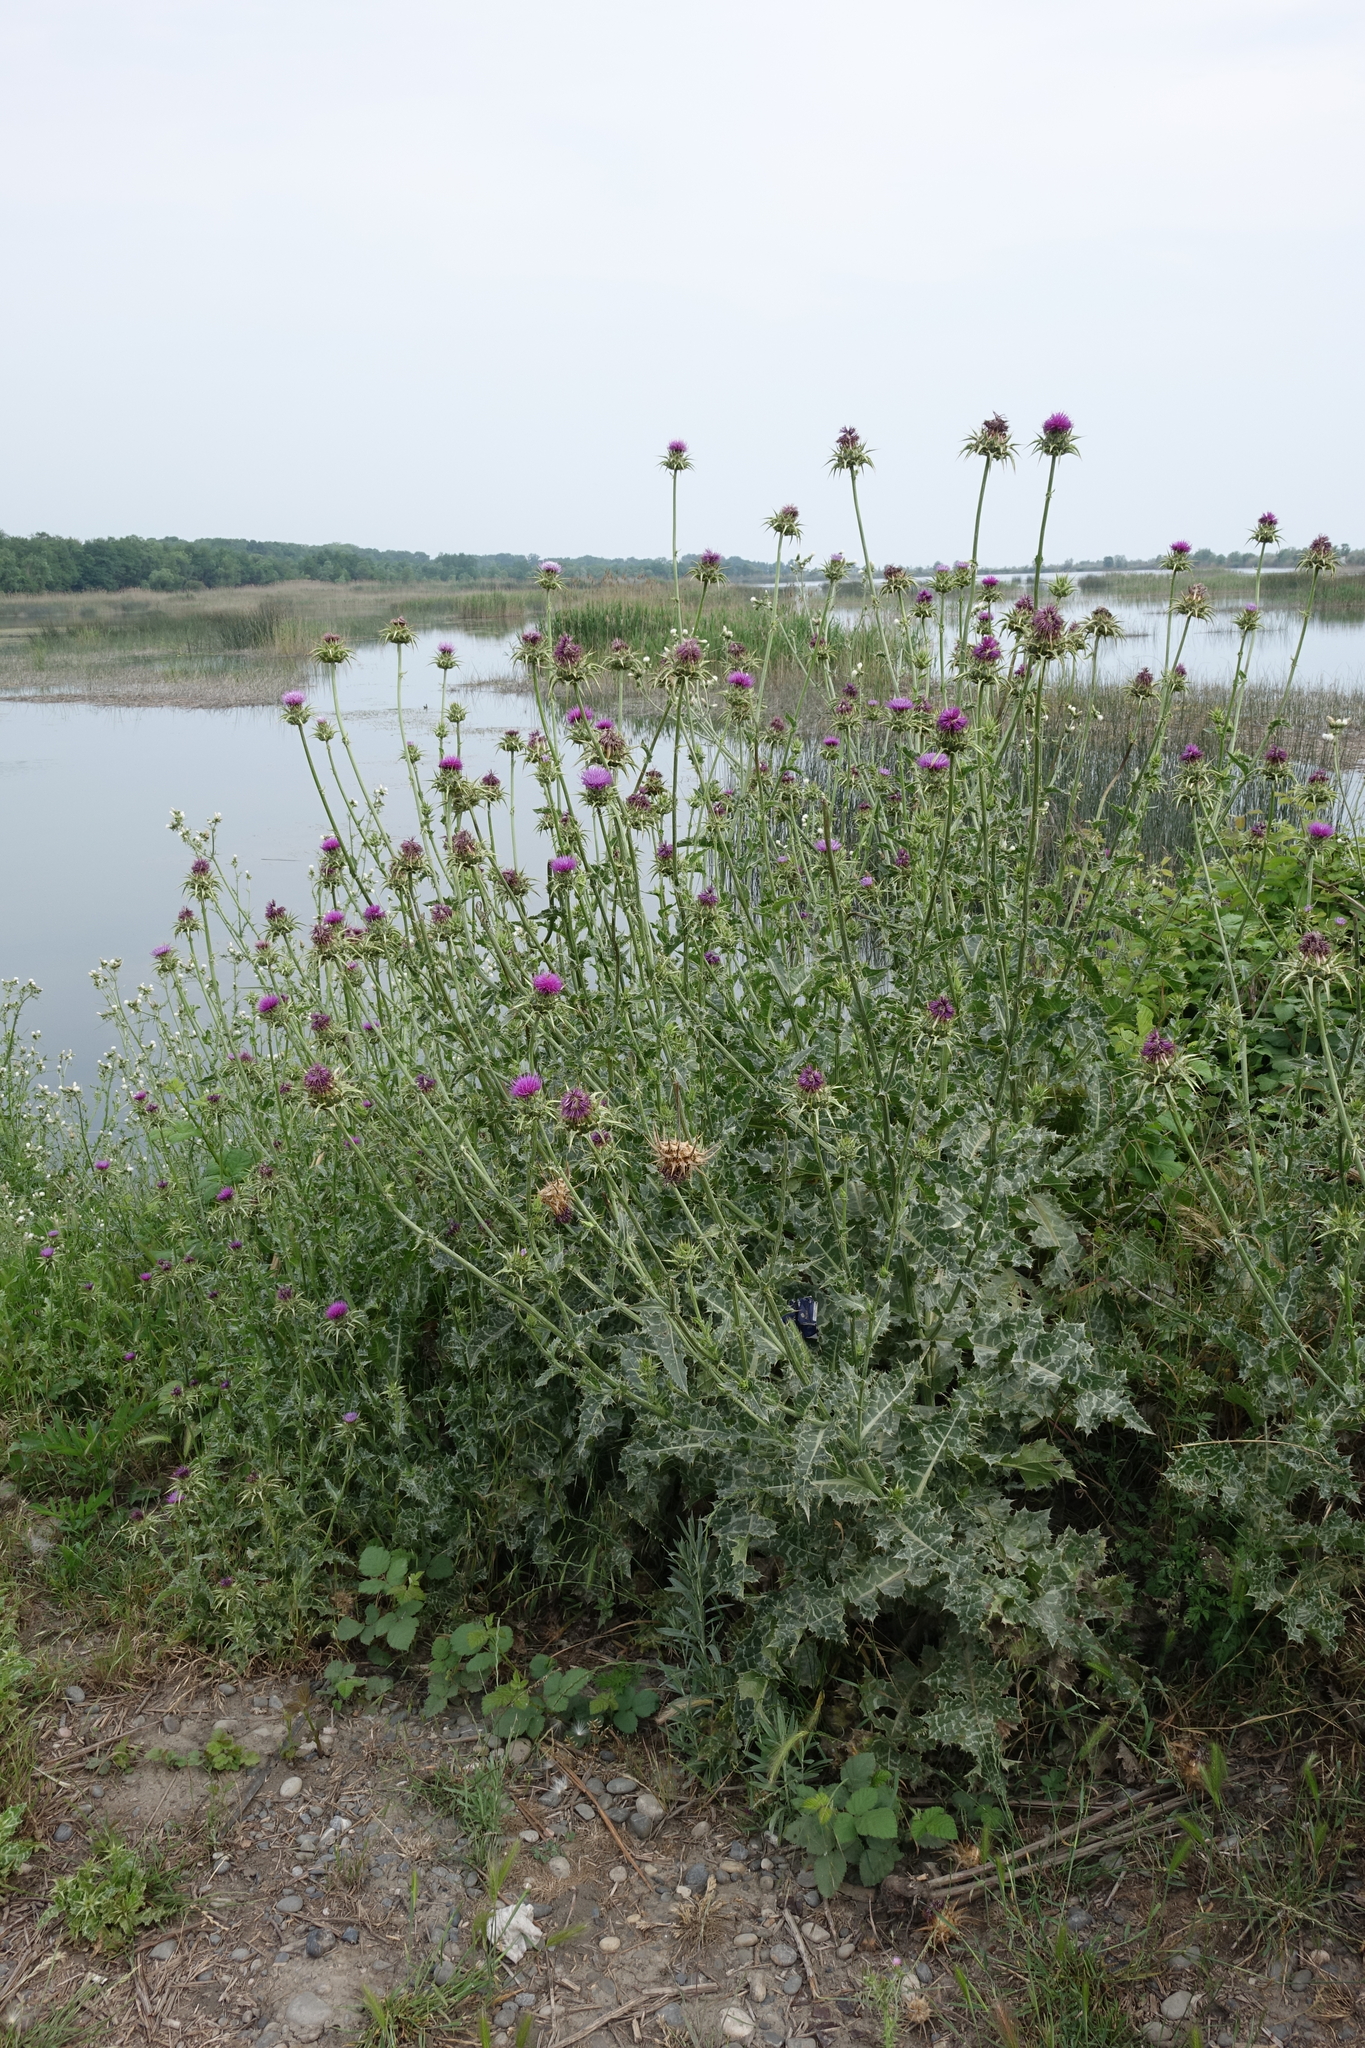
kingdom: Plantae
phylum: Tracheophyta
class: Magnoliopsida
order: Asterales
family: Asteraceae
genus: Silybum
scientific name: Silybum marianum
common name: Milk thistle
